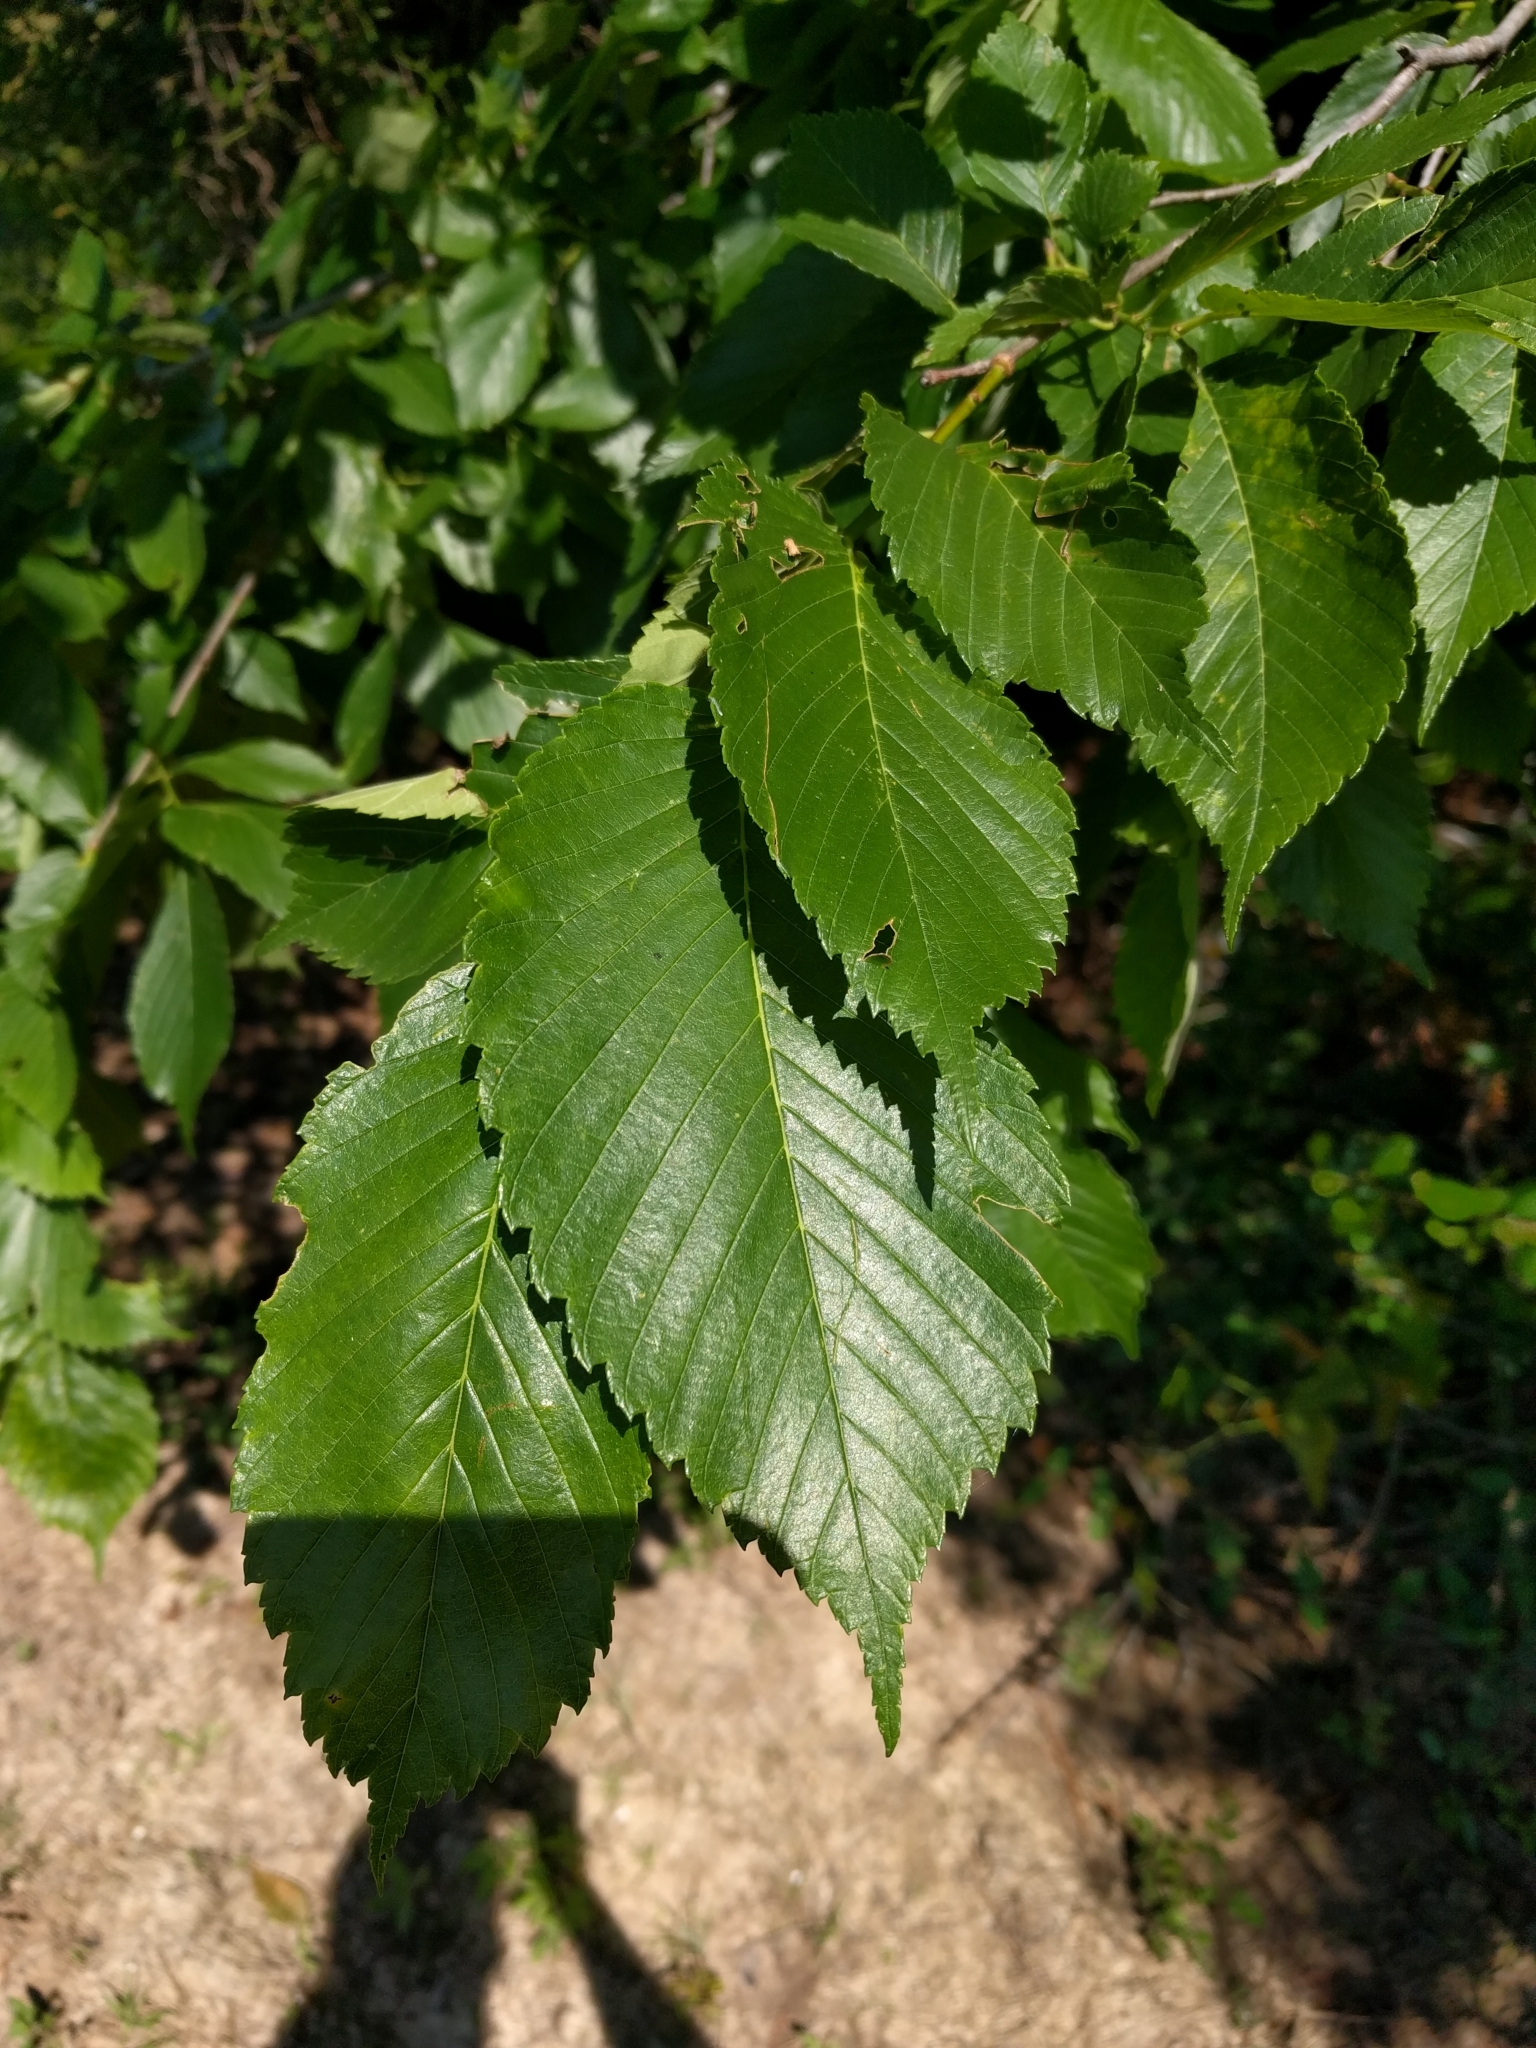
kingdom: Plantae
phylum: Tracheophyta
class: Magnoliopsida
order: Rosales
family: Ulmaceae
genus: Ulmus
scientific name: Ulmus americana
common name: American elm
